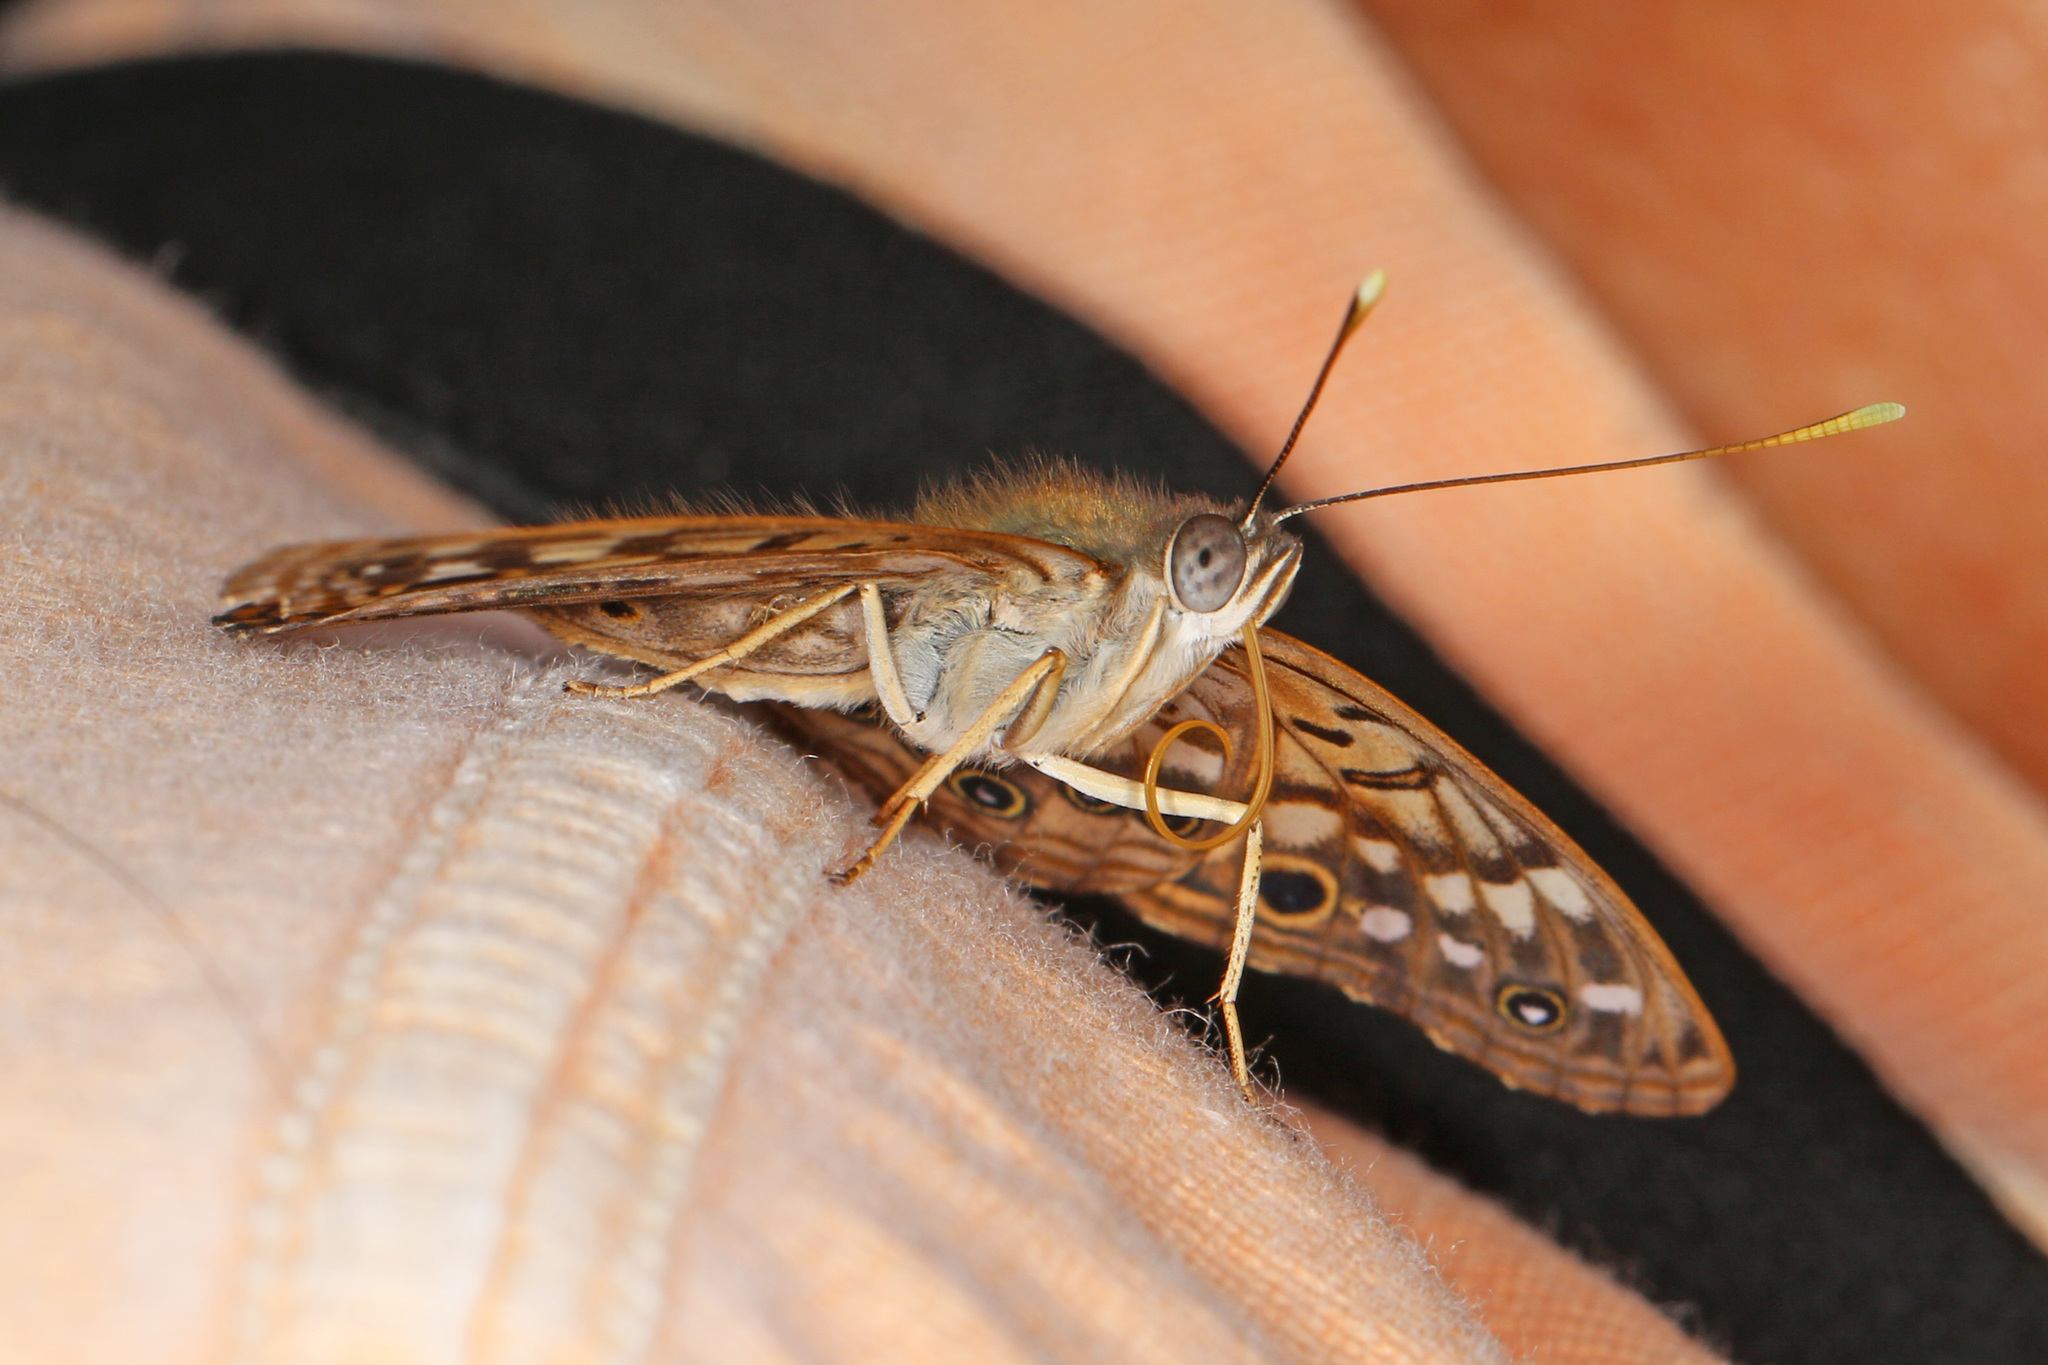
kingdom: Animalia
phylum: Arthropoda
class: Insecta
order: Lepidoptera
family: Nymphalidae
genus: Asterocampa
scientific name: Asterocampa celtis
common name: Hackberry emperor
